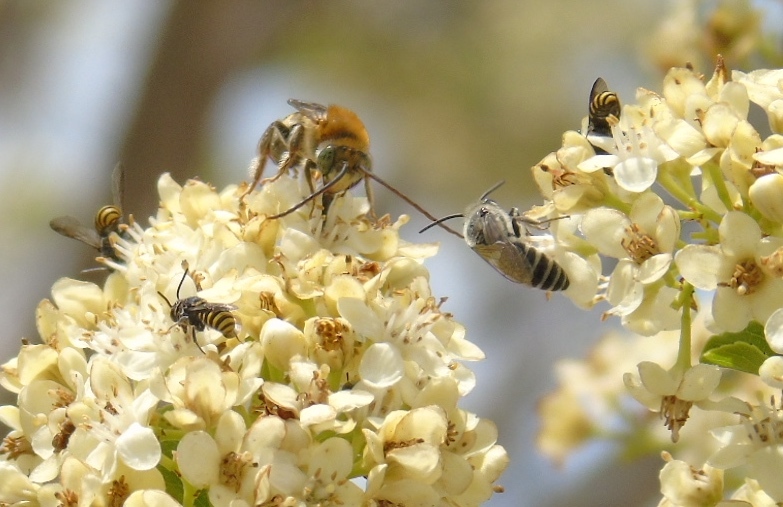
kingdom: Animalia
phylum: Arthropoda
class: Insecta
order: Hymenoptera
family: Colletidae
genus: Colletes
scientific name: Colletes
